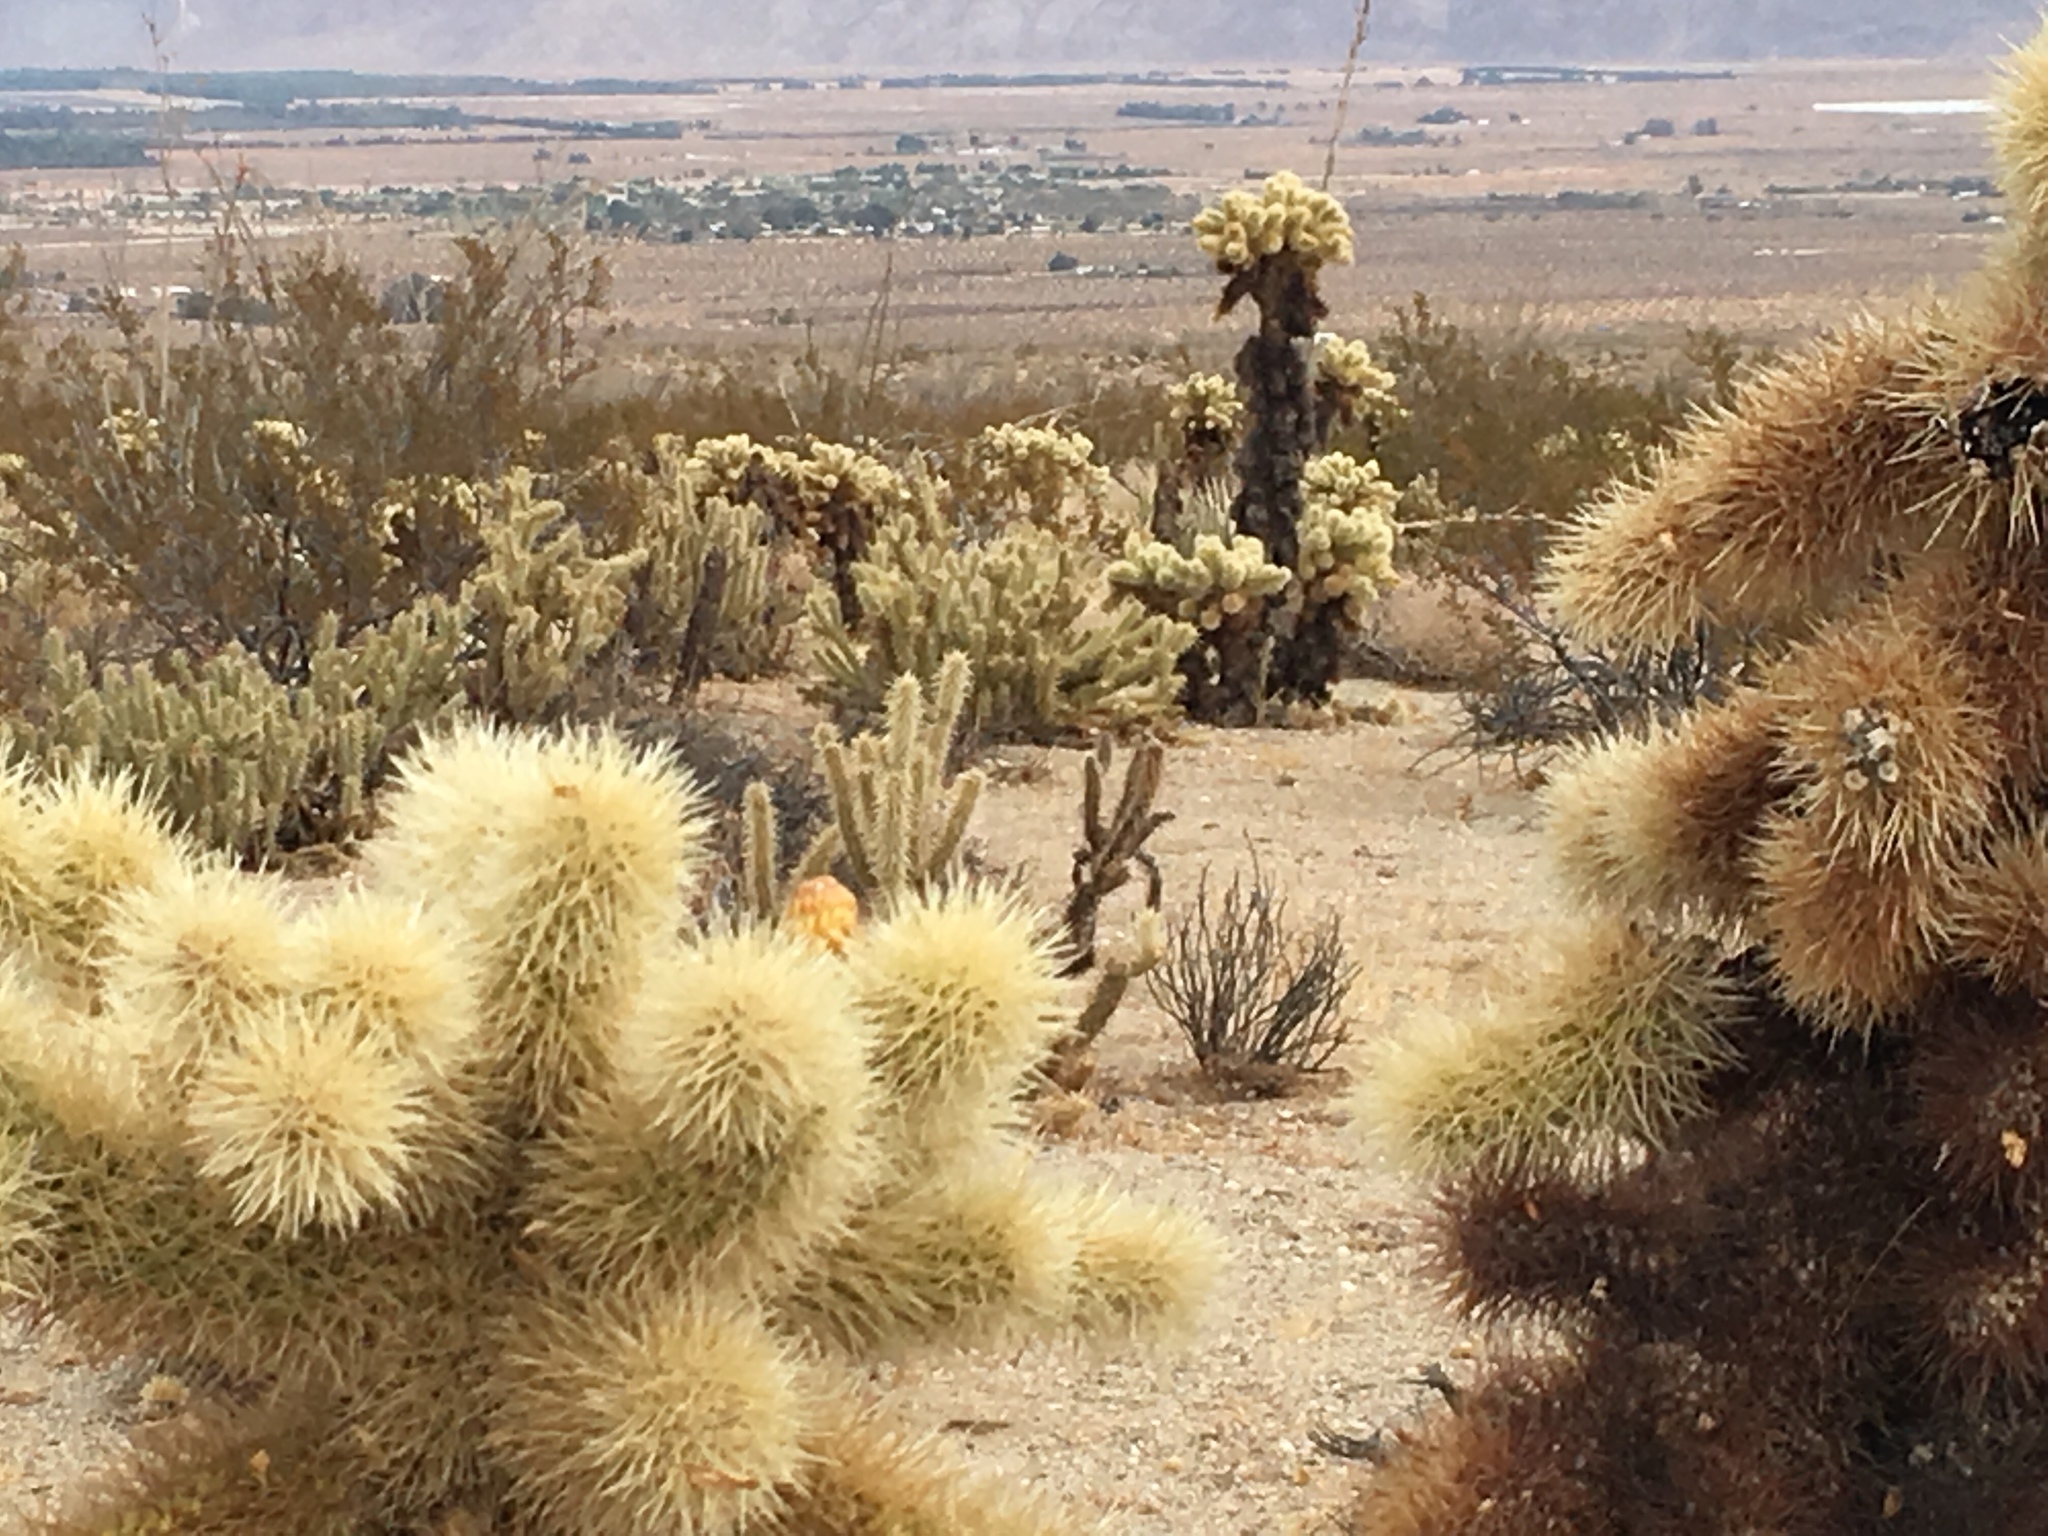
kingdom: Plantae
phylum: Tracheophyta
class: Magnoliopsida
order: Caryophyllales
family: Cactaceae
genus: Cylindropuntia
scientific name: Cylindropuntia fosbergii
